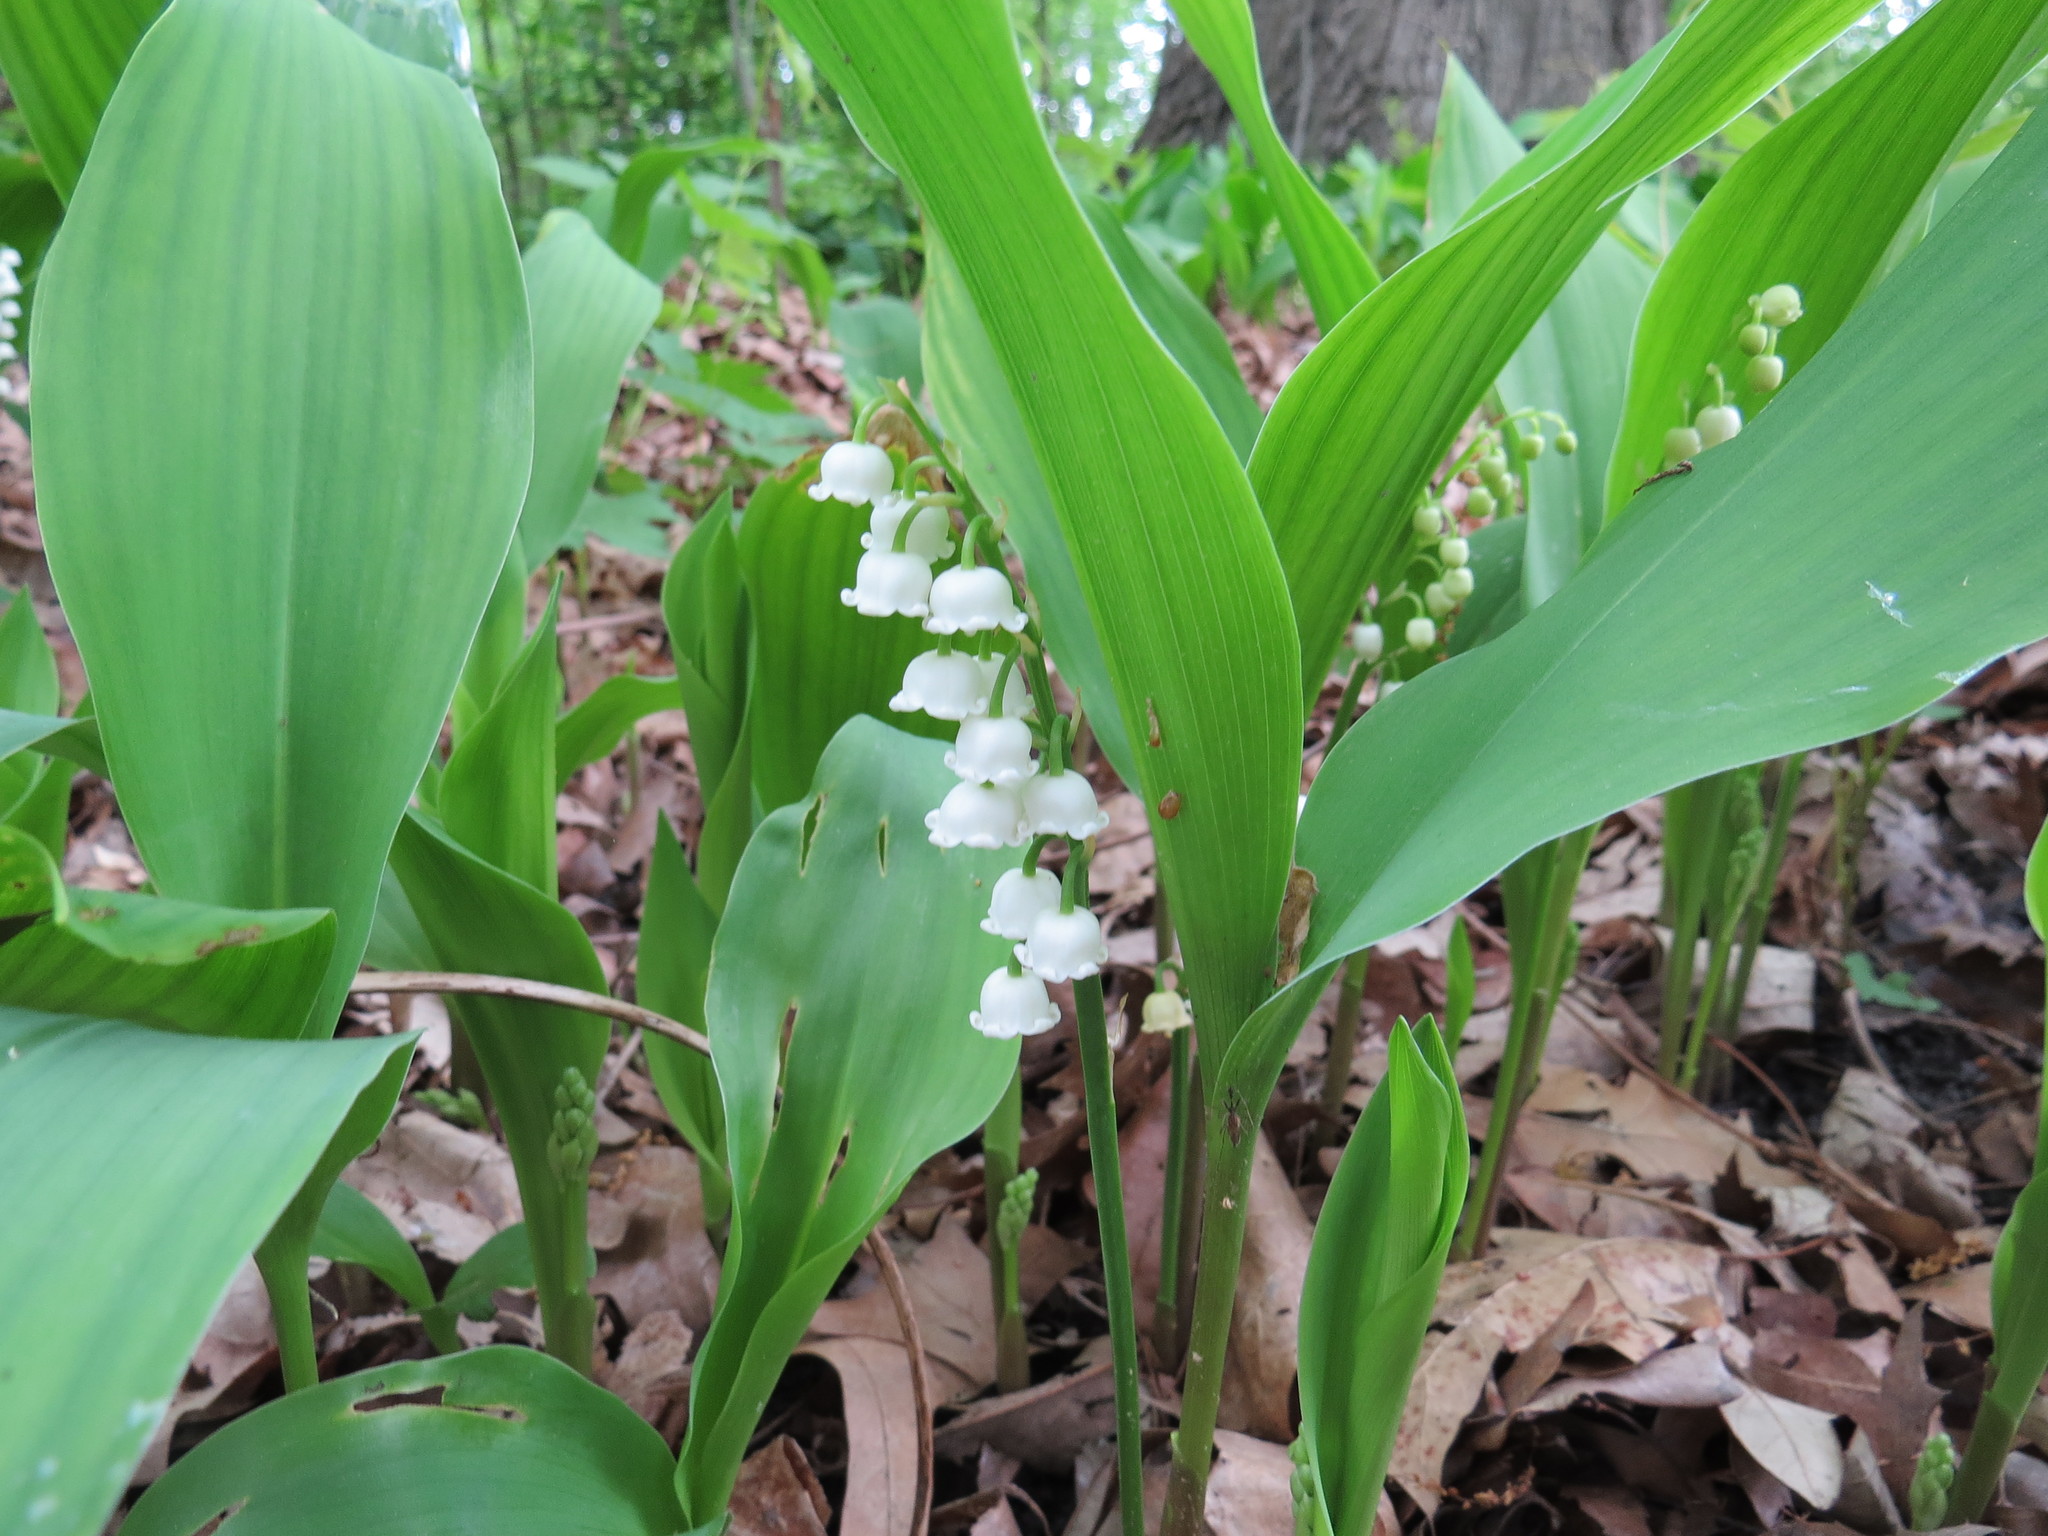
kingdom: Plantae
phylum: Tracheophyta
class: Liliopsida
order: Asparagales
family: Asparagaceae
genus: Convallaria
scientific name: Convallaria majalis
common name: Lily-of-the-valley
